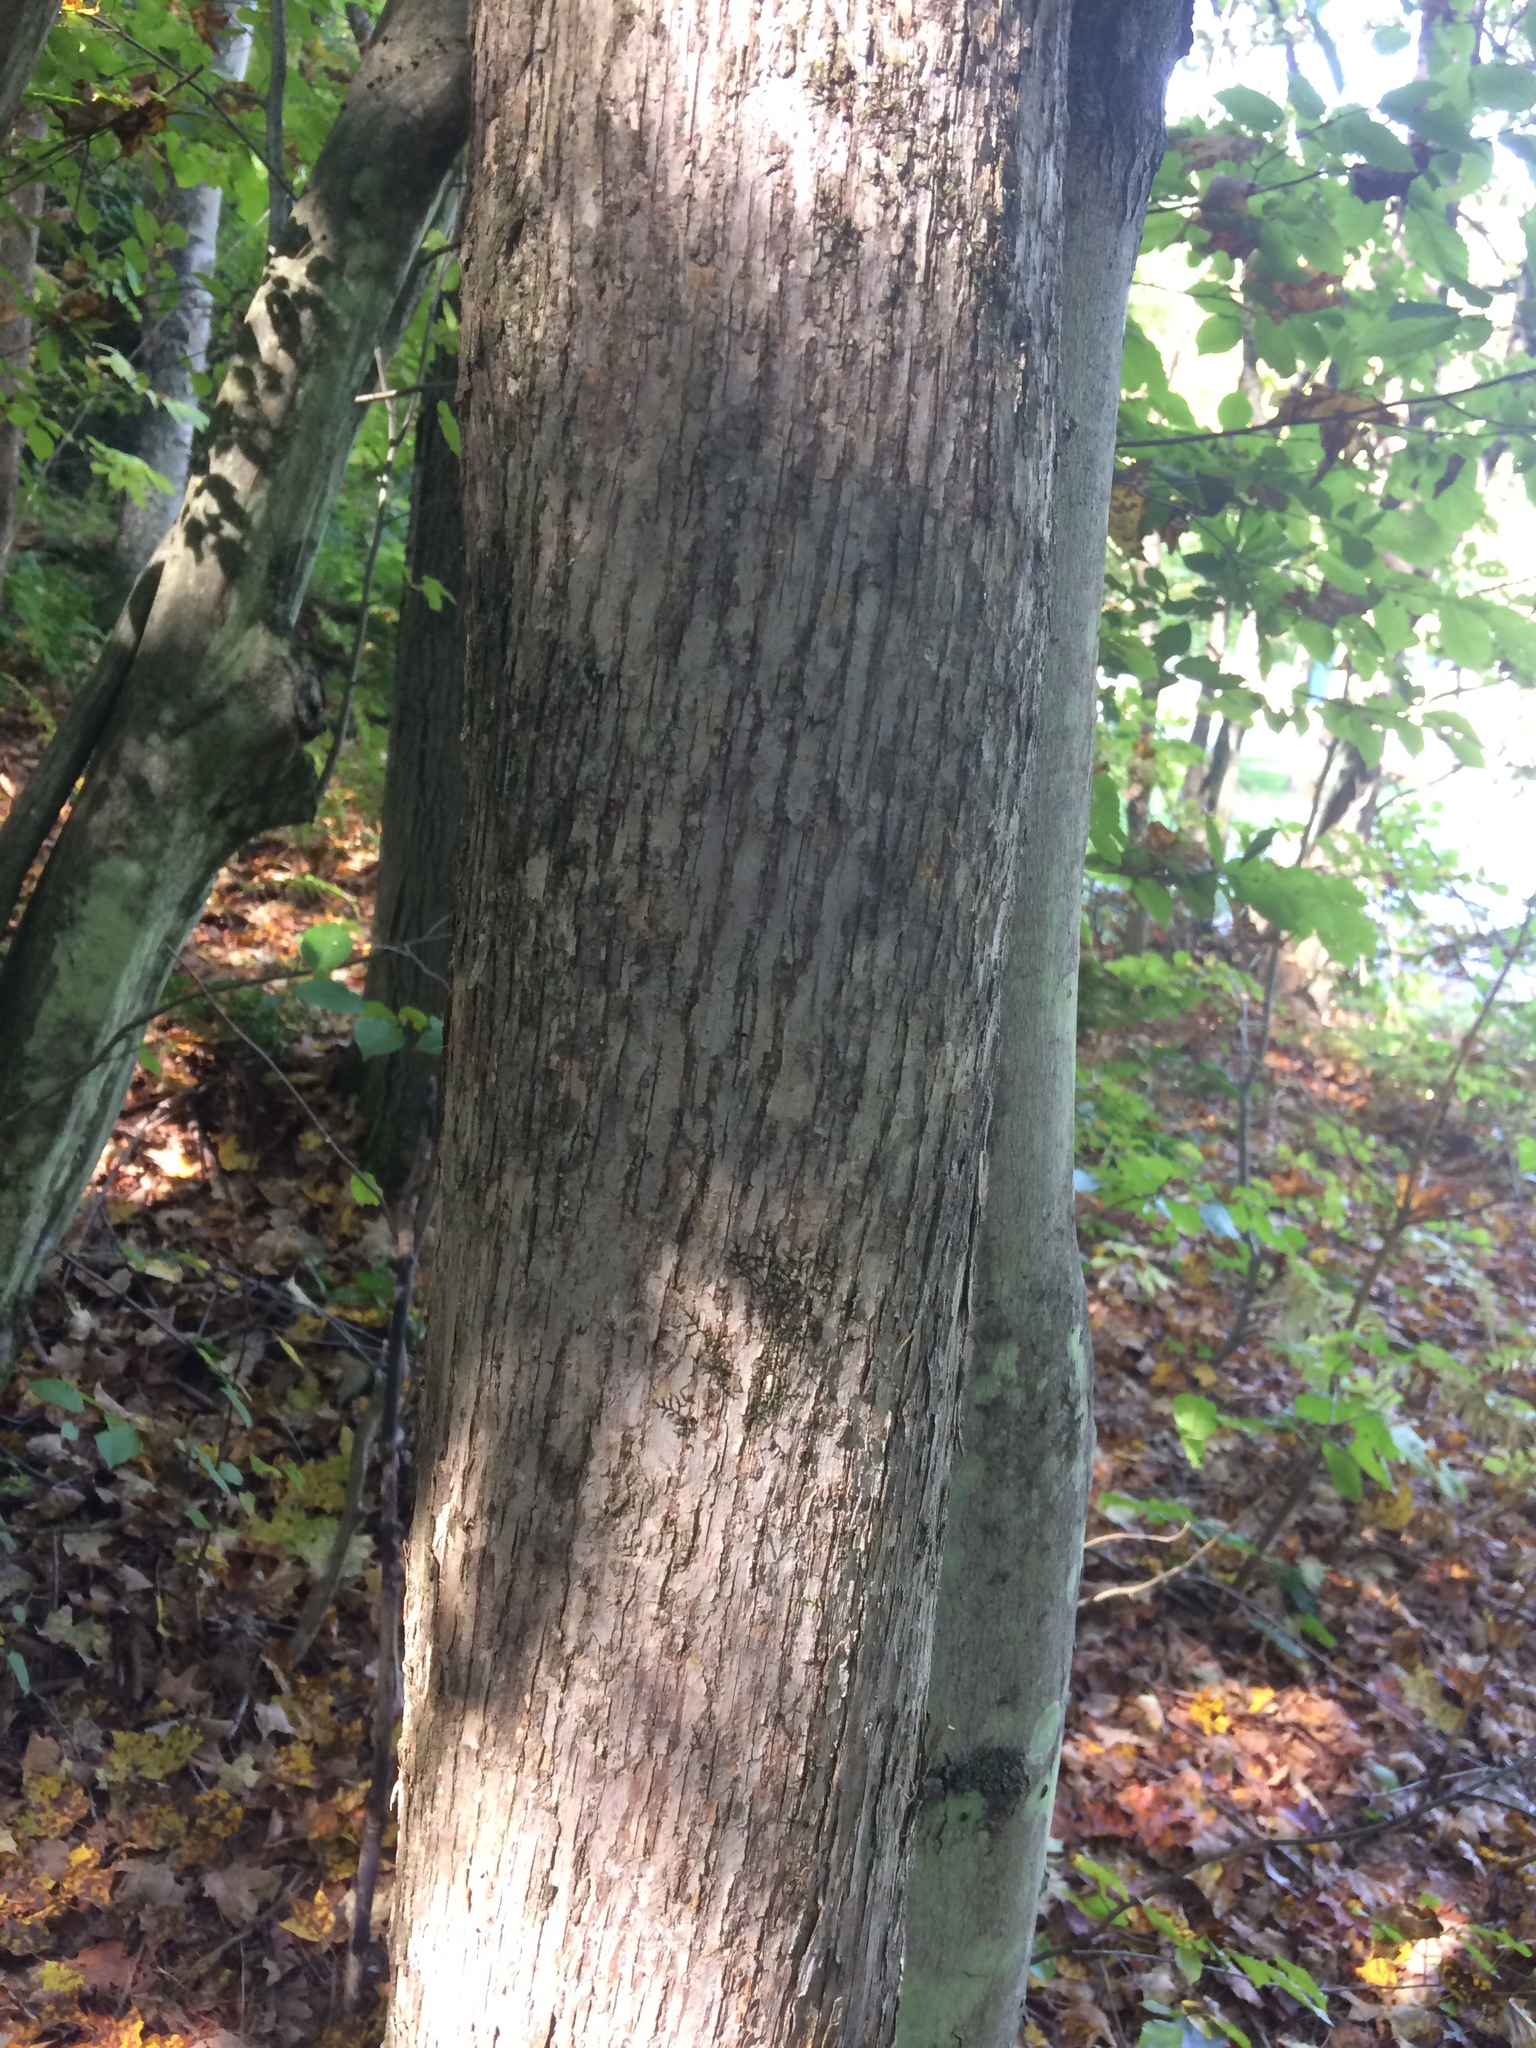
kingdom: Plantae
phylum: Tracheophyta
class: Magnoliopsida
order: Fagales
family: Betulaceae
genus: Ostrya
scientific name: Ostrya virginiana
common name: Ironwood
